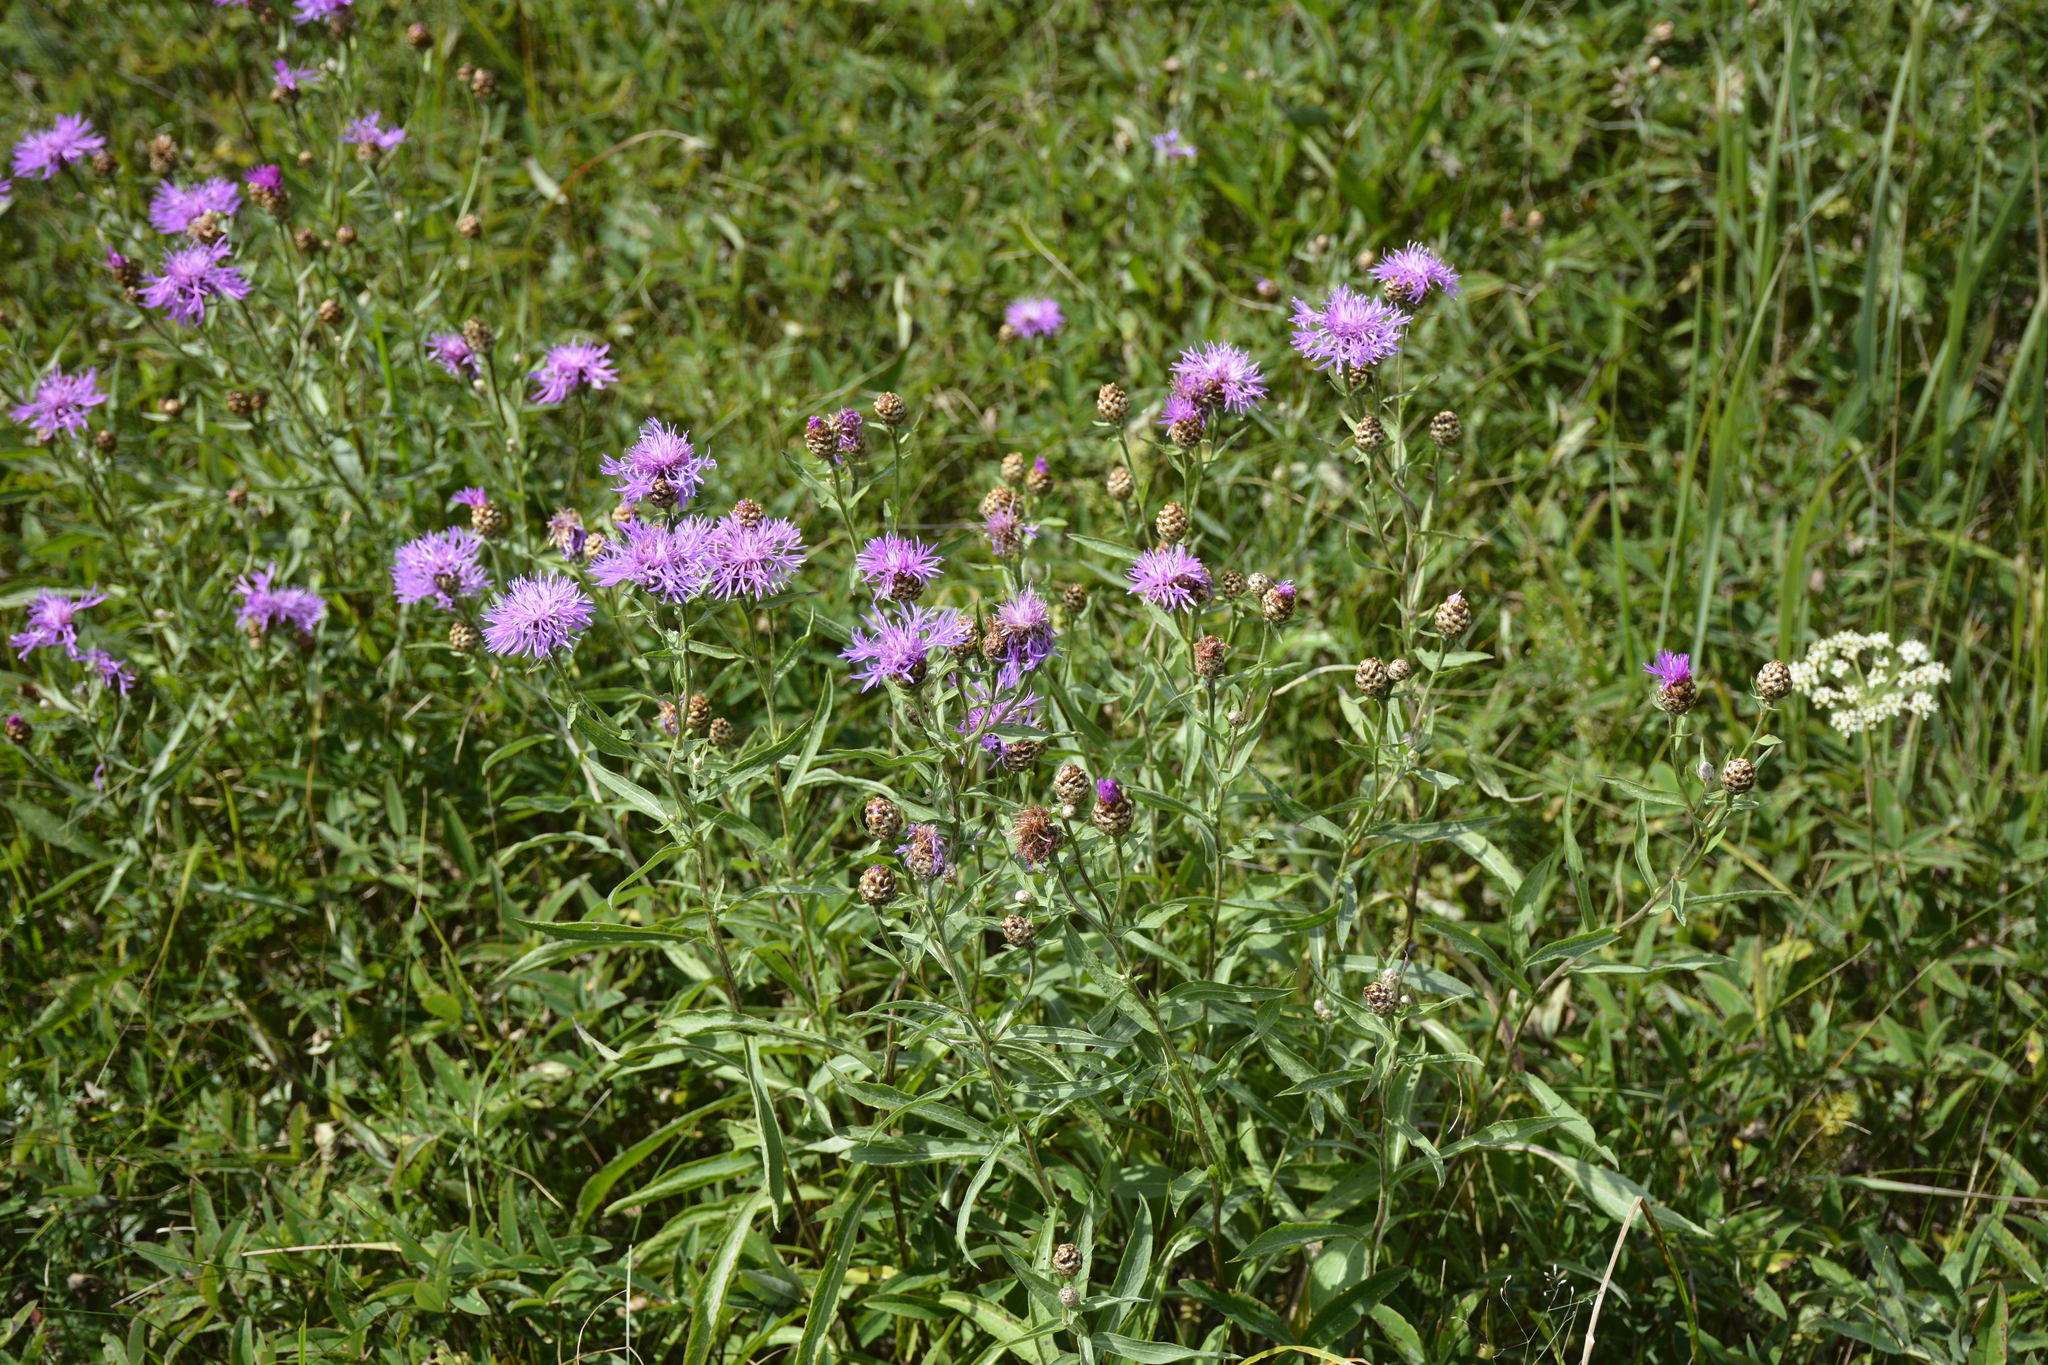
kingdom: Plantae
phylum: Tracheophyta
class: Magnoliopsida
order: Asterales
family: Asteraceae
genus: Centaurea
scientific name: Centaurea jacea
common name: Brown knapweed
